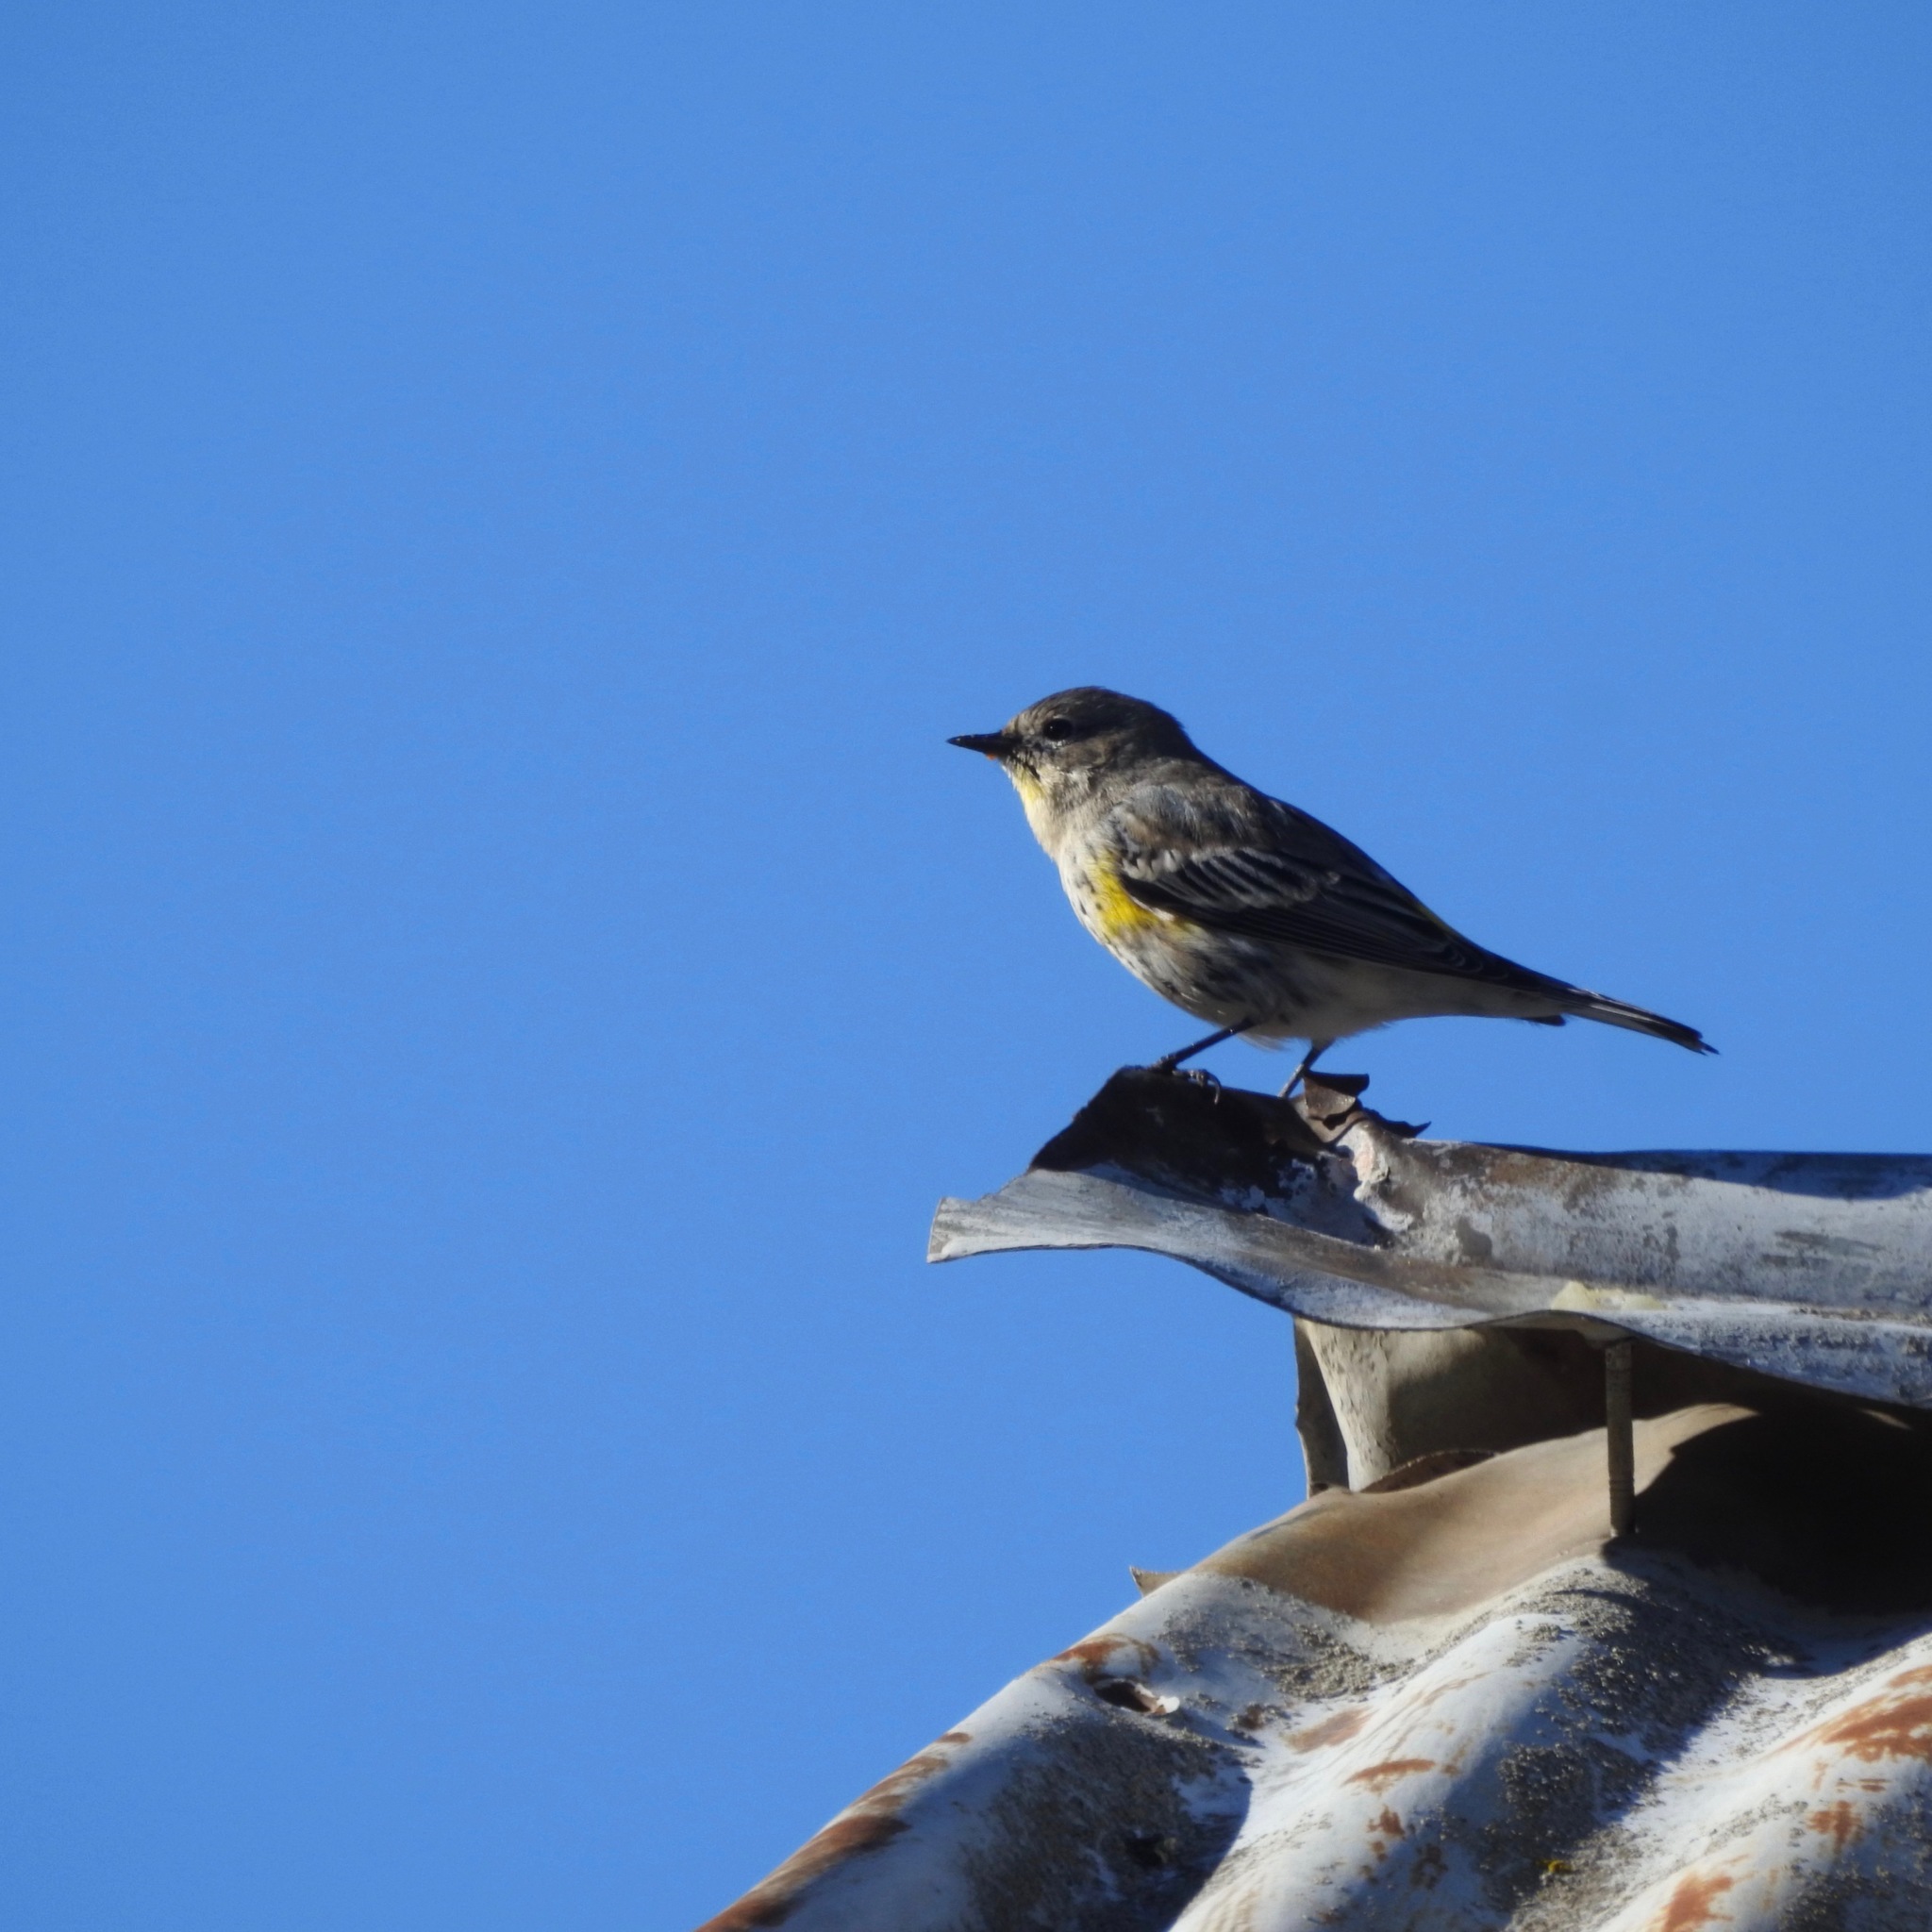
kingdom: Animalia
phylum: Chordata
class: Aves
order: Passeriformes
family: Parulidae
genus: Setophaga
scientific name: Setophaga coronata
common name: Myrtle warbler
